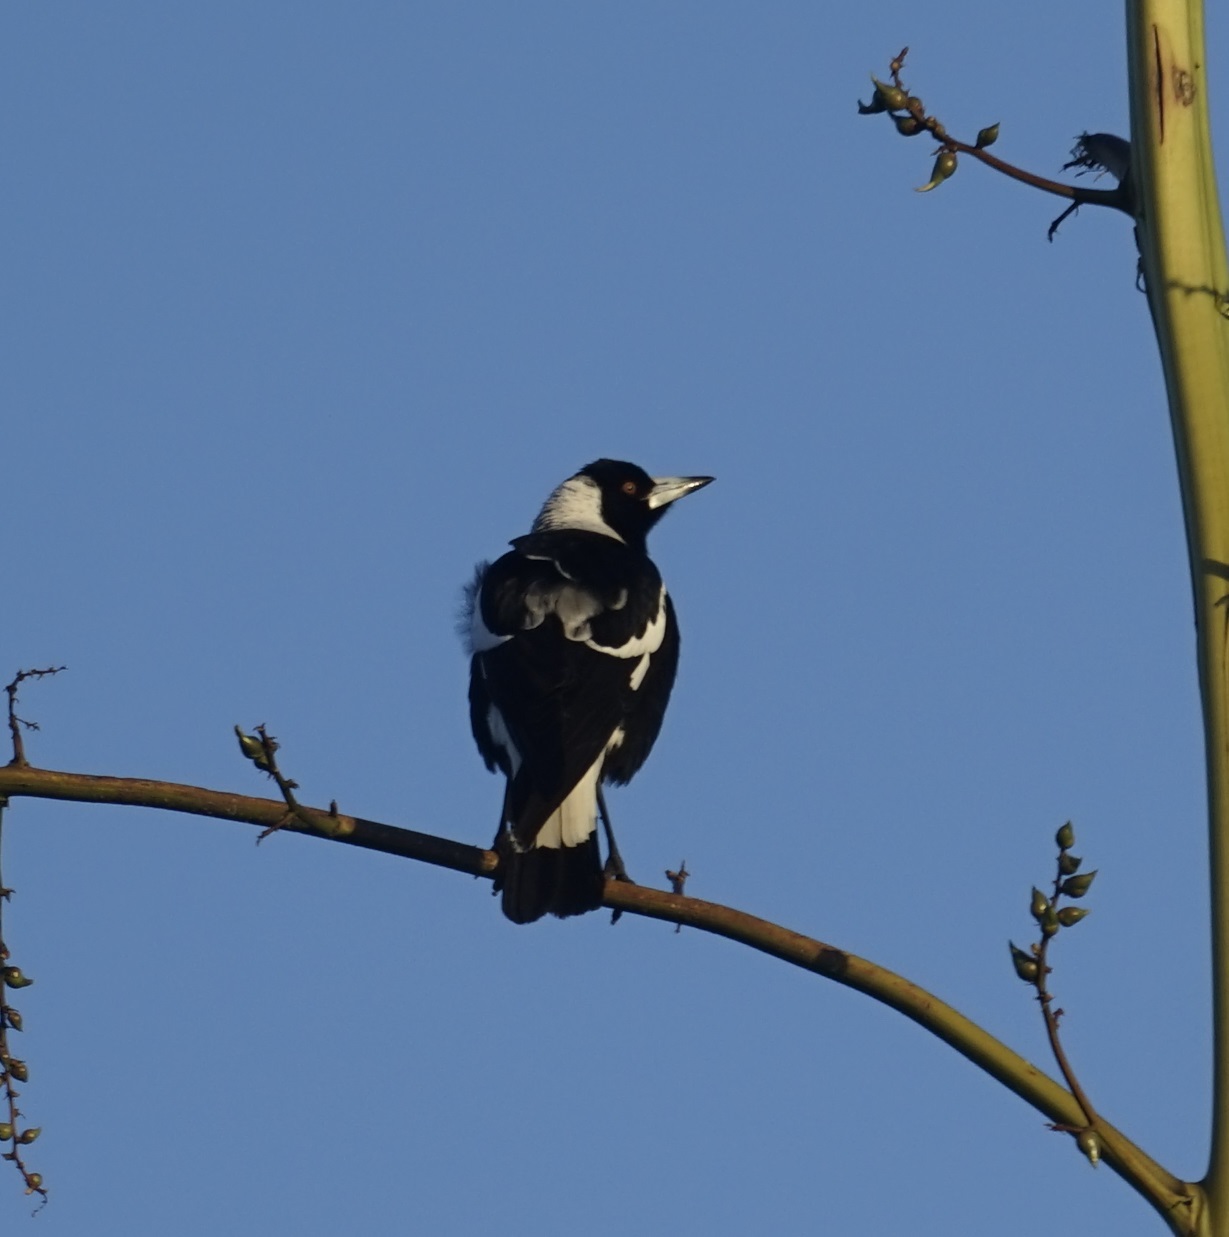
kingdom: Animalia
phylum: Chordata
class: Aves
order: Passeriformes
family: Cracticidae
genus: Gymnorhina
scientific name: Gymnorhina tibicen
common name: Australian magpie
